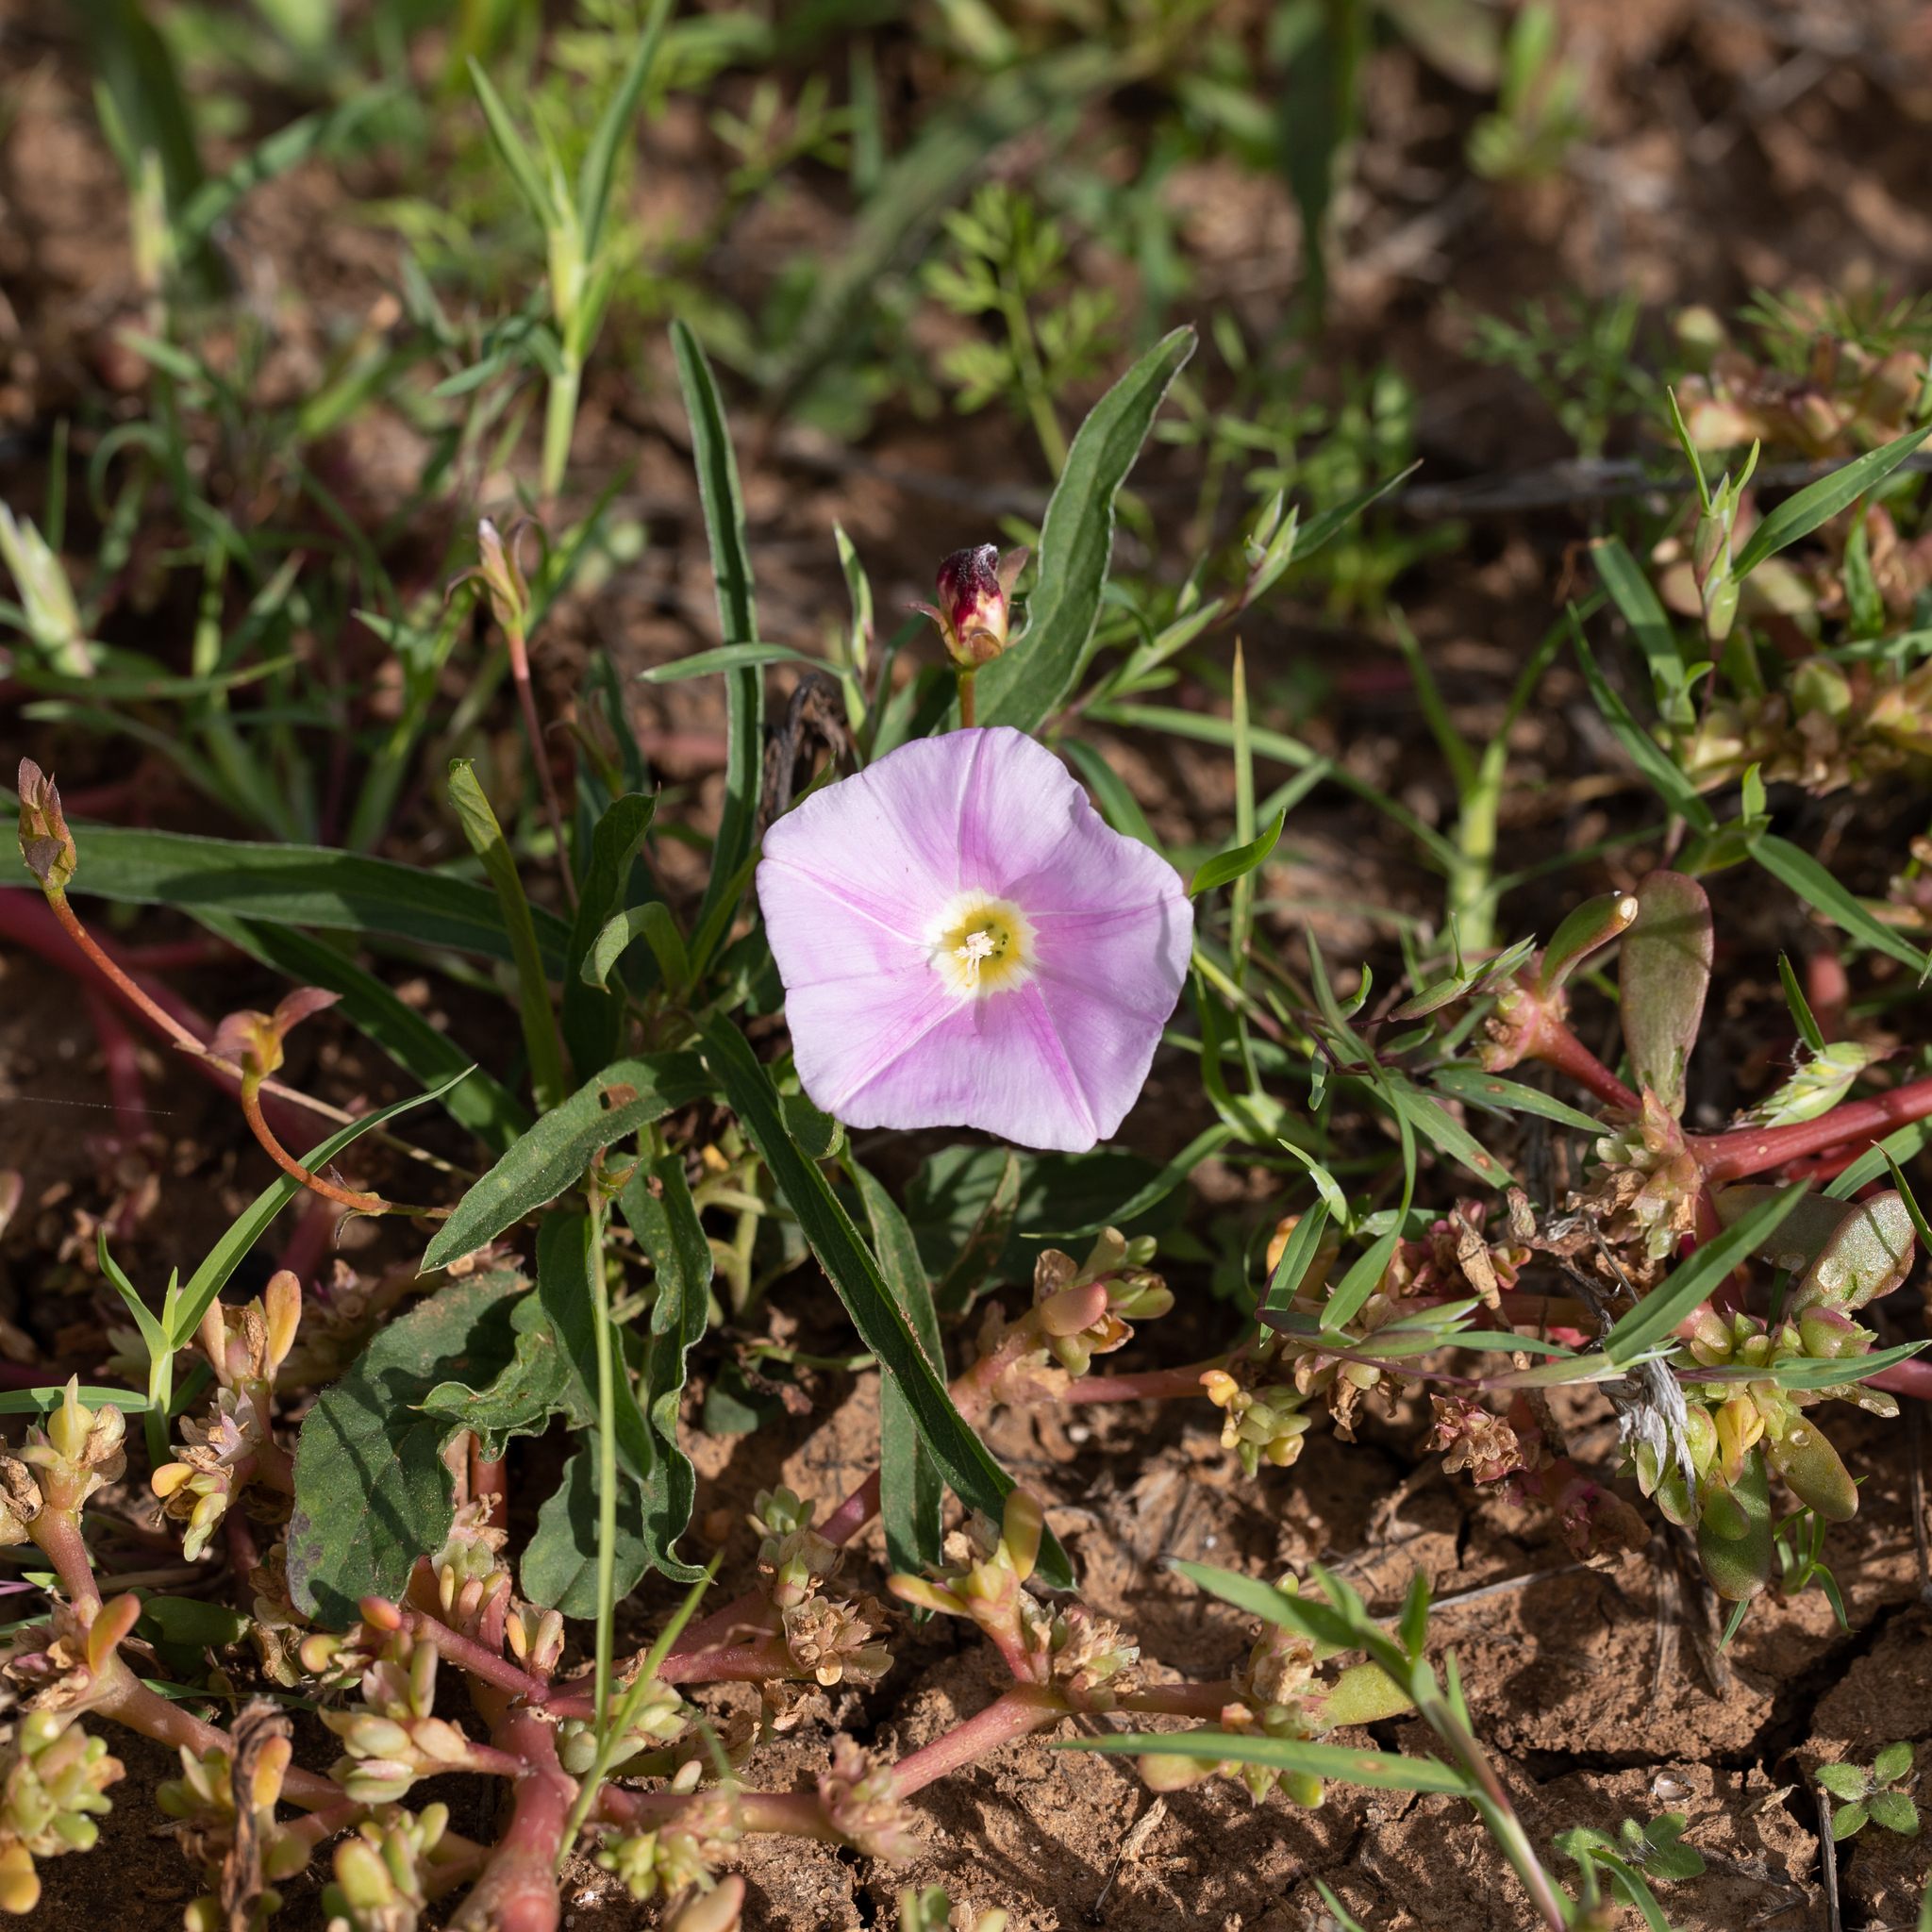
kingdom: Plantae
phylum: Tracheophyta
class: Magnoliopsida
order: Solanales
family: Convolvulaceae
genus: Polymeria
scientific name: Polymeria longifolia
